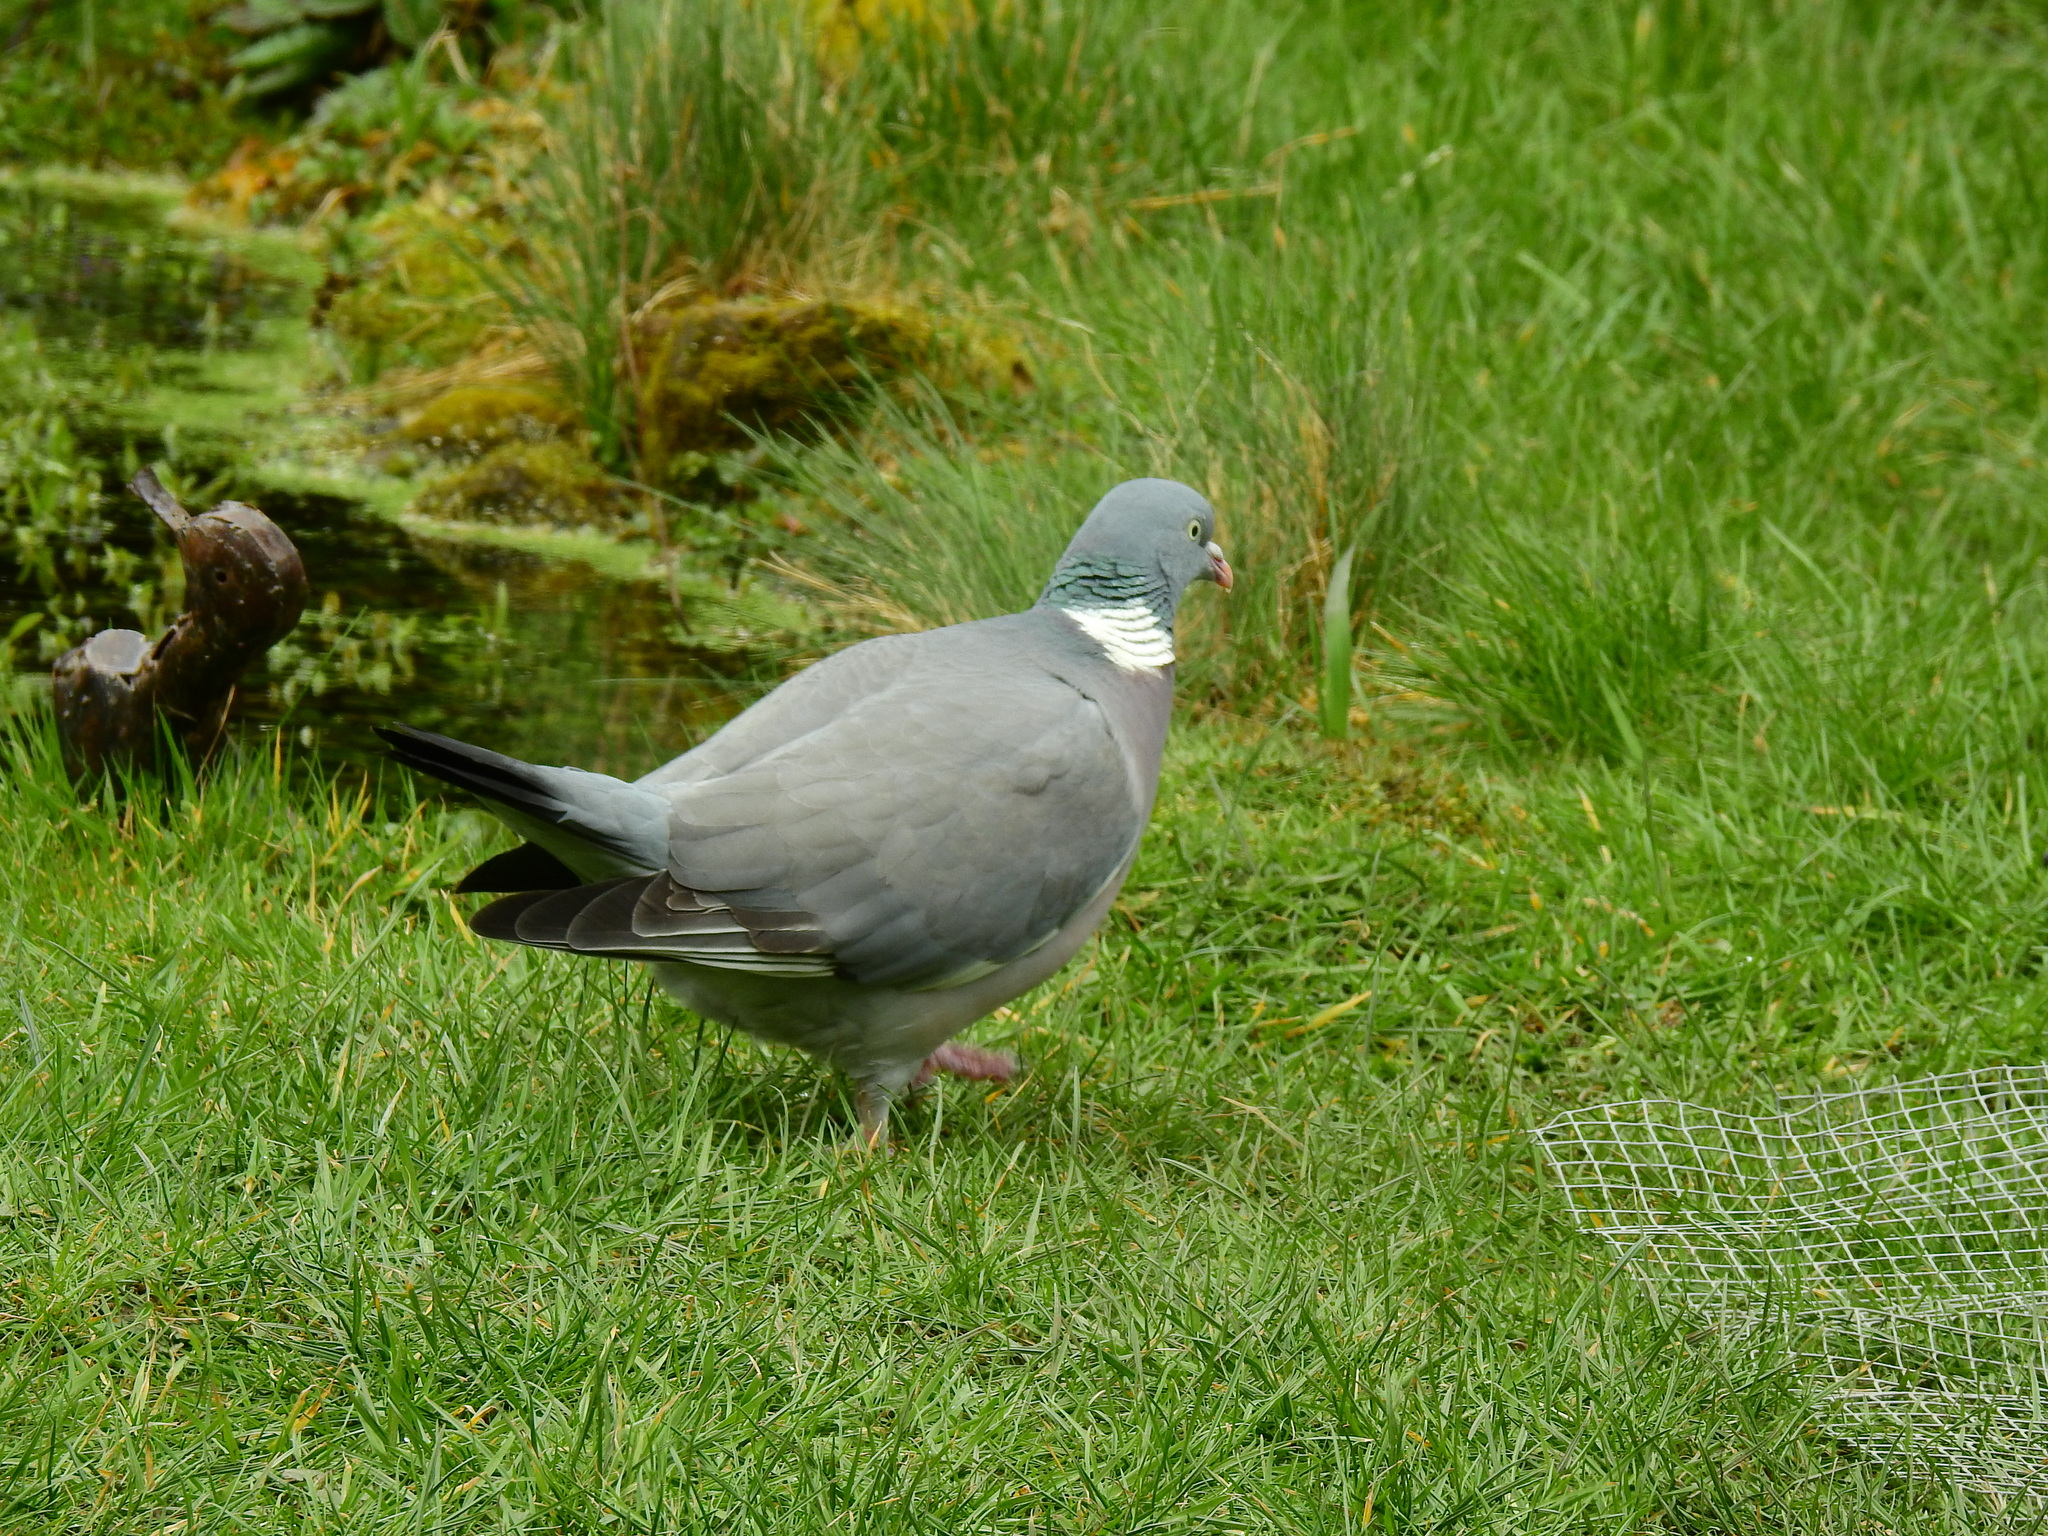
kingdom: Animalia
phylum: Chordata
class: Aves
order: Columbiformes
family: Columbidae
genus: Columba
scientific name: Columba palumbus
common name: Common wood pigeon
